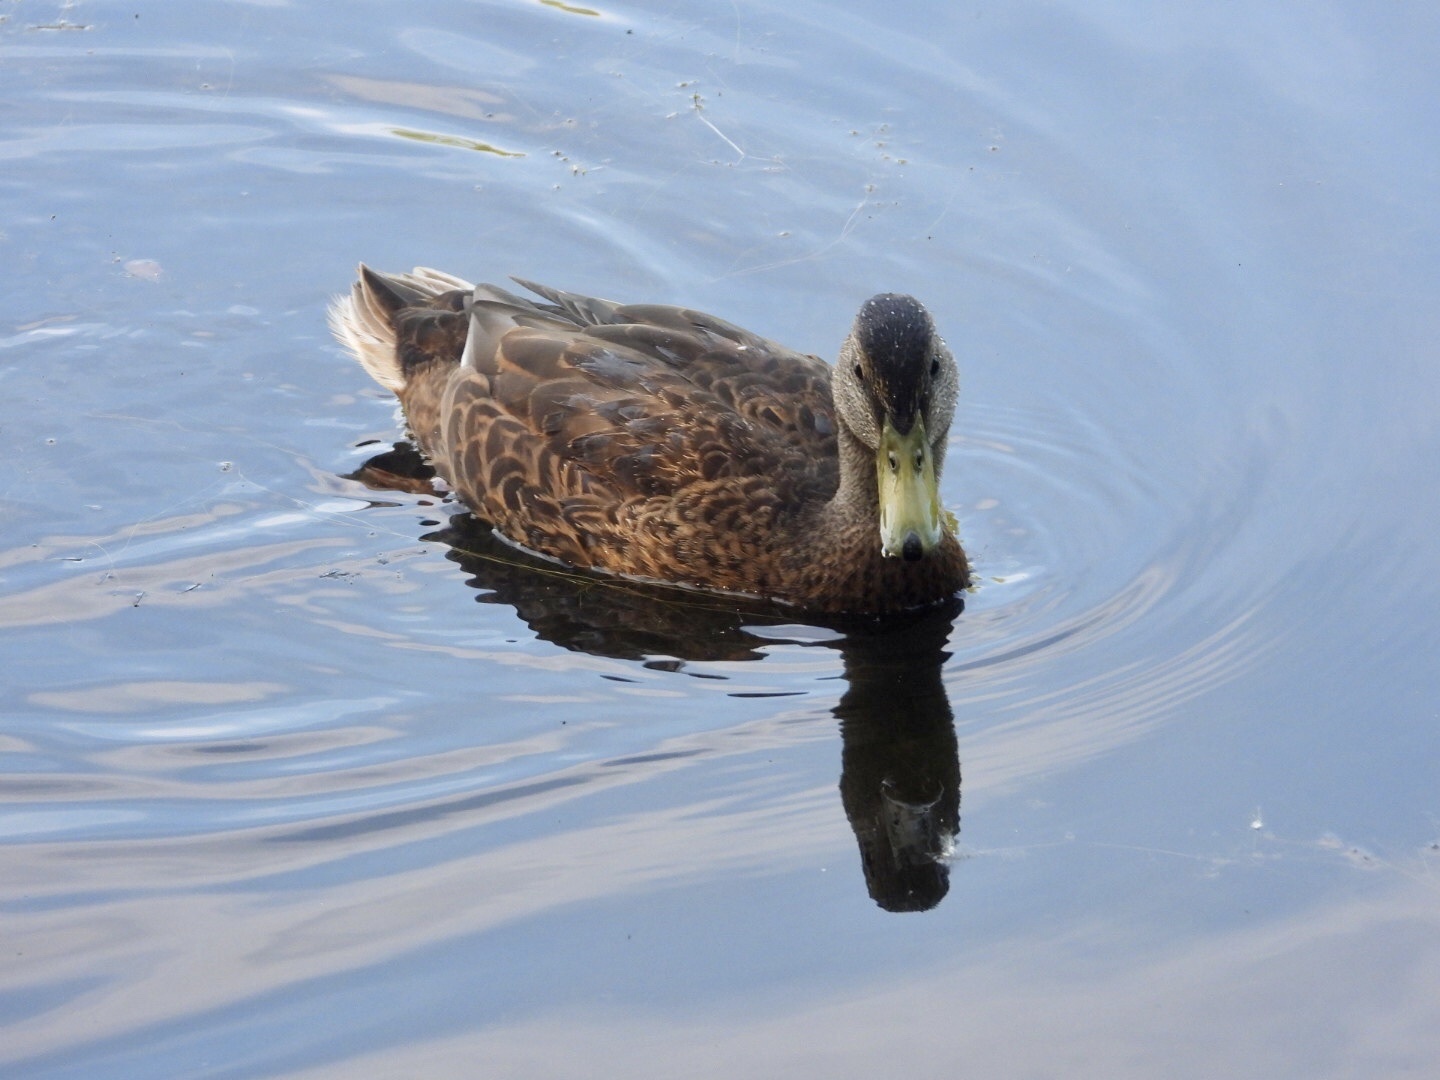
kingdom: Animalia
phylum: Chordata
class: Aves
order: Anseriformes
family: Anatidae
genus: Anas
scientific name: Anas platyrhynchos
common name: Mallard
